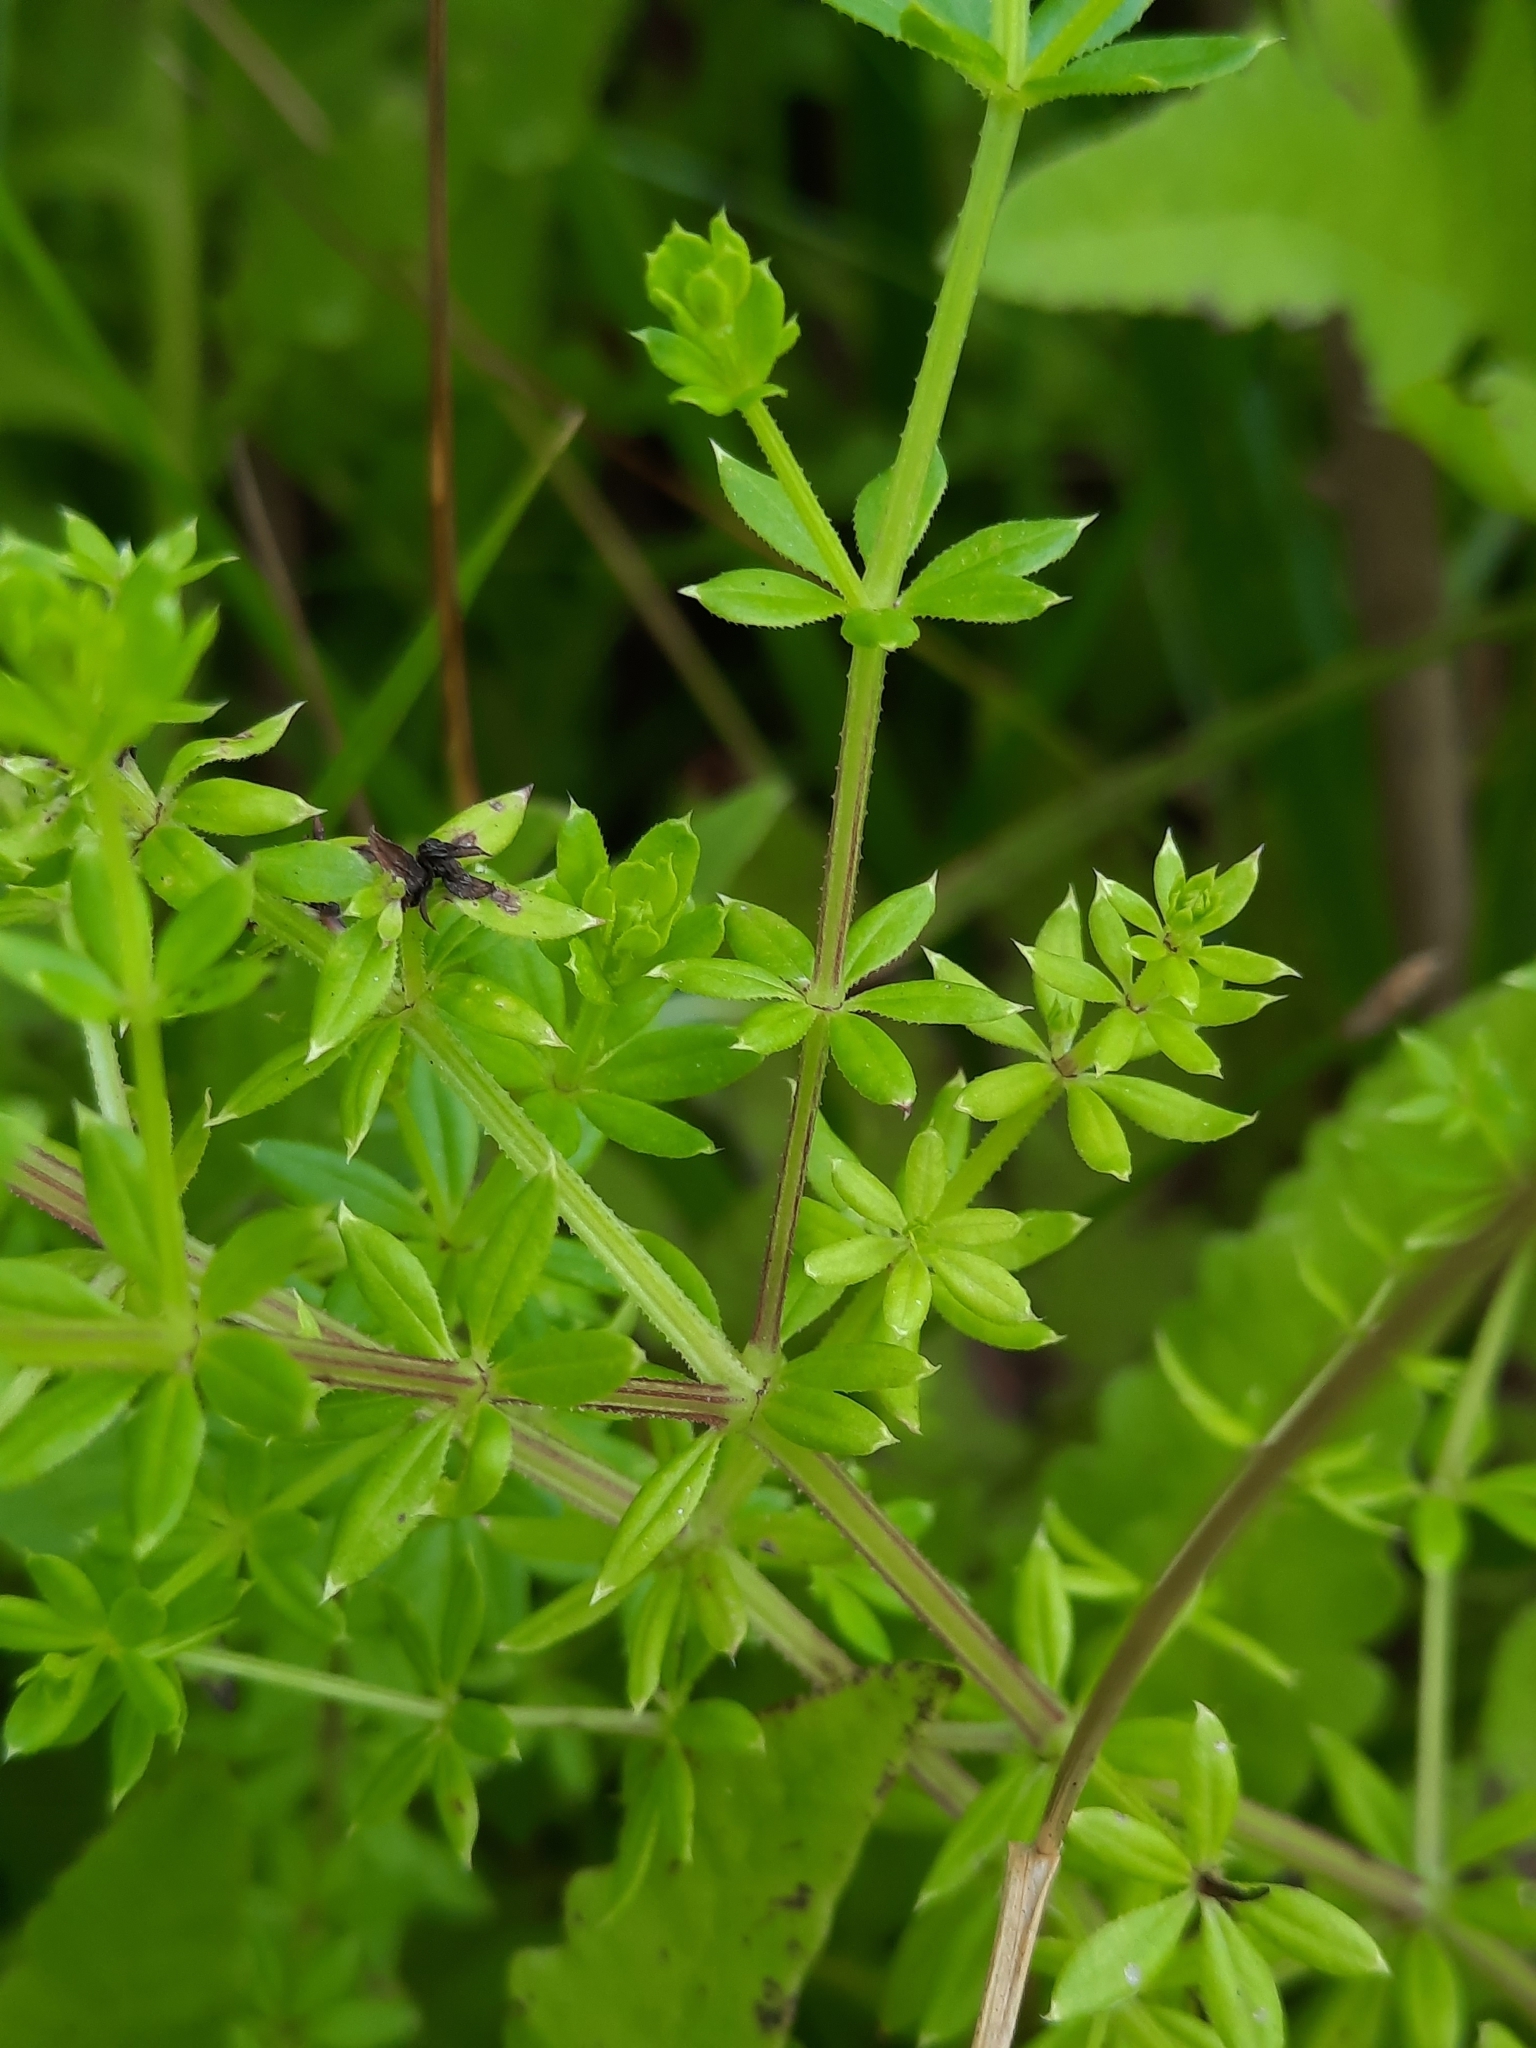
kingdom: Plantae
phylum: Tracheophyta
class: Magnoliopsida
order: Gentianales
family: Rubiaceae
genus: Galium
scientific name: Galium asprellum
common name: Rough bedstraw
